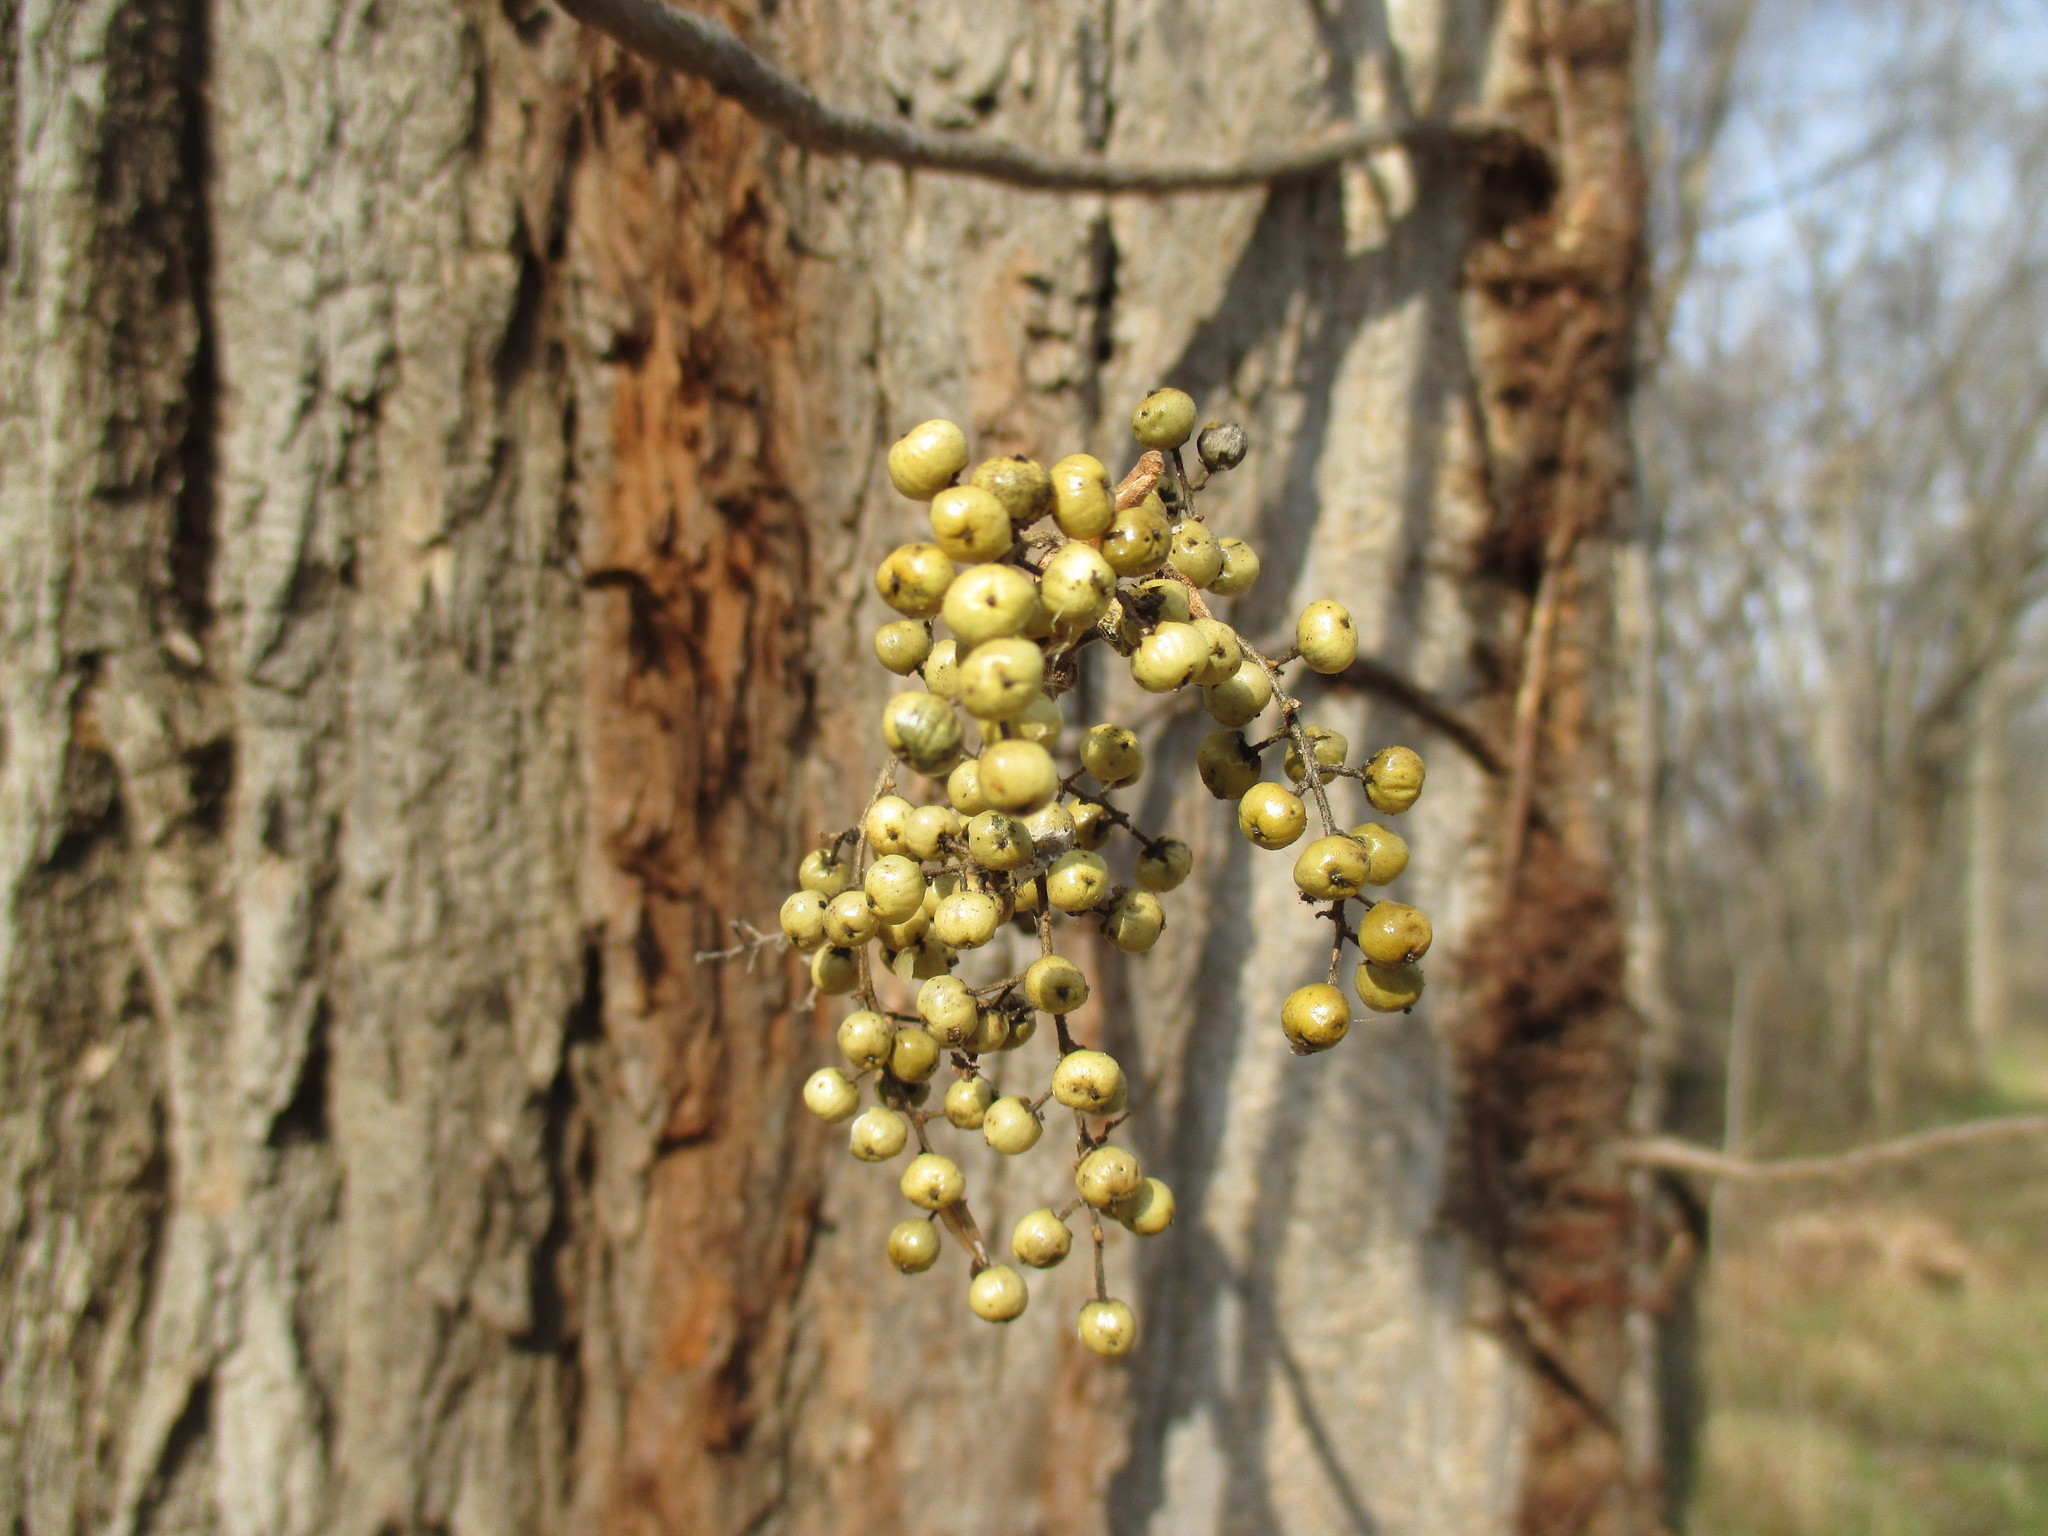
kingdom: Plantae
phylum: Tracheophyta
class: Magnoliopsida
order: Sapindales
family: Anacardiaceae
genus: Toxicodendron
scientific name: Toxicodendron radicans
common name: Poison ivy
